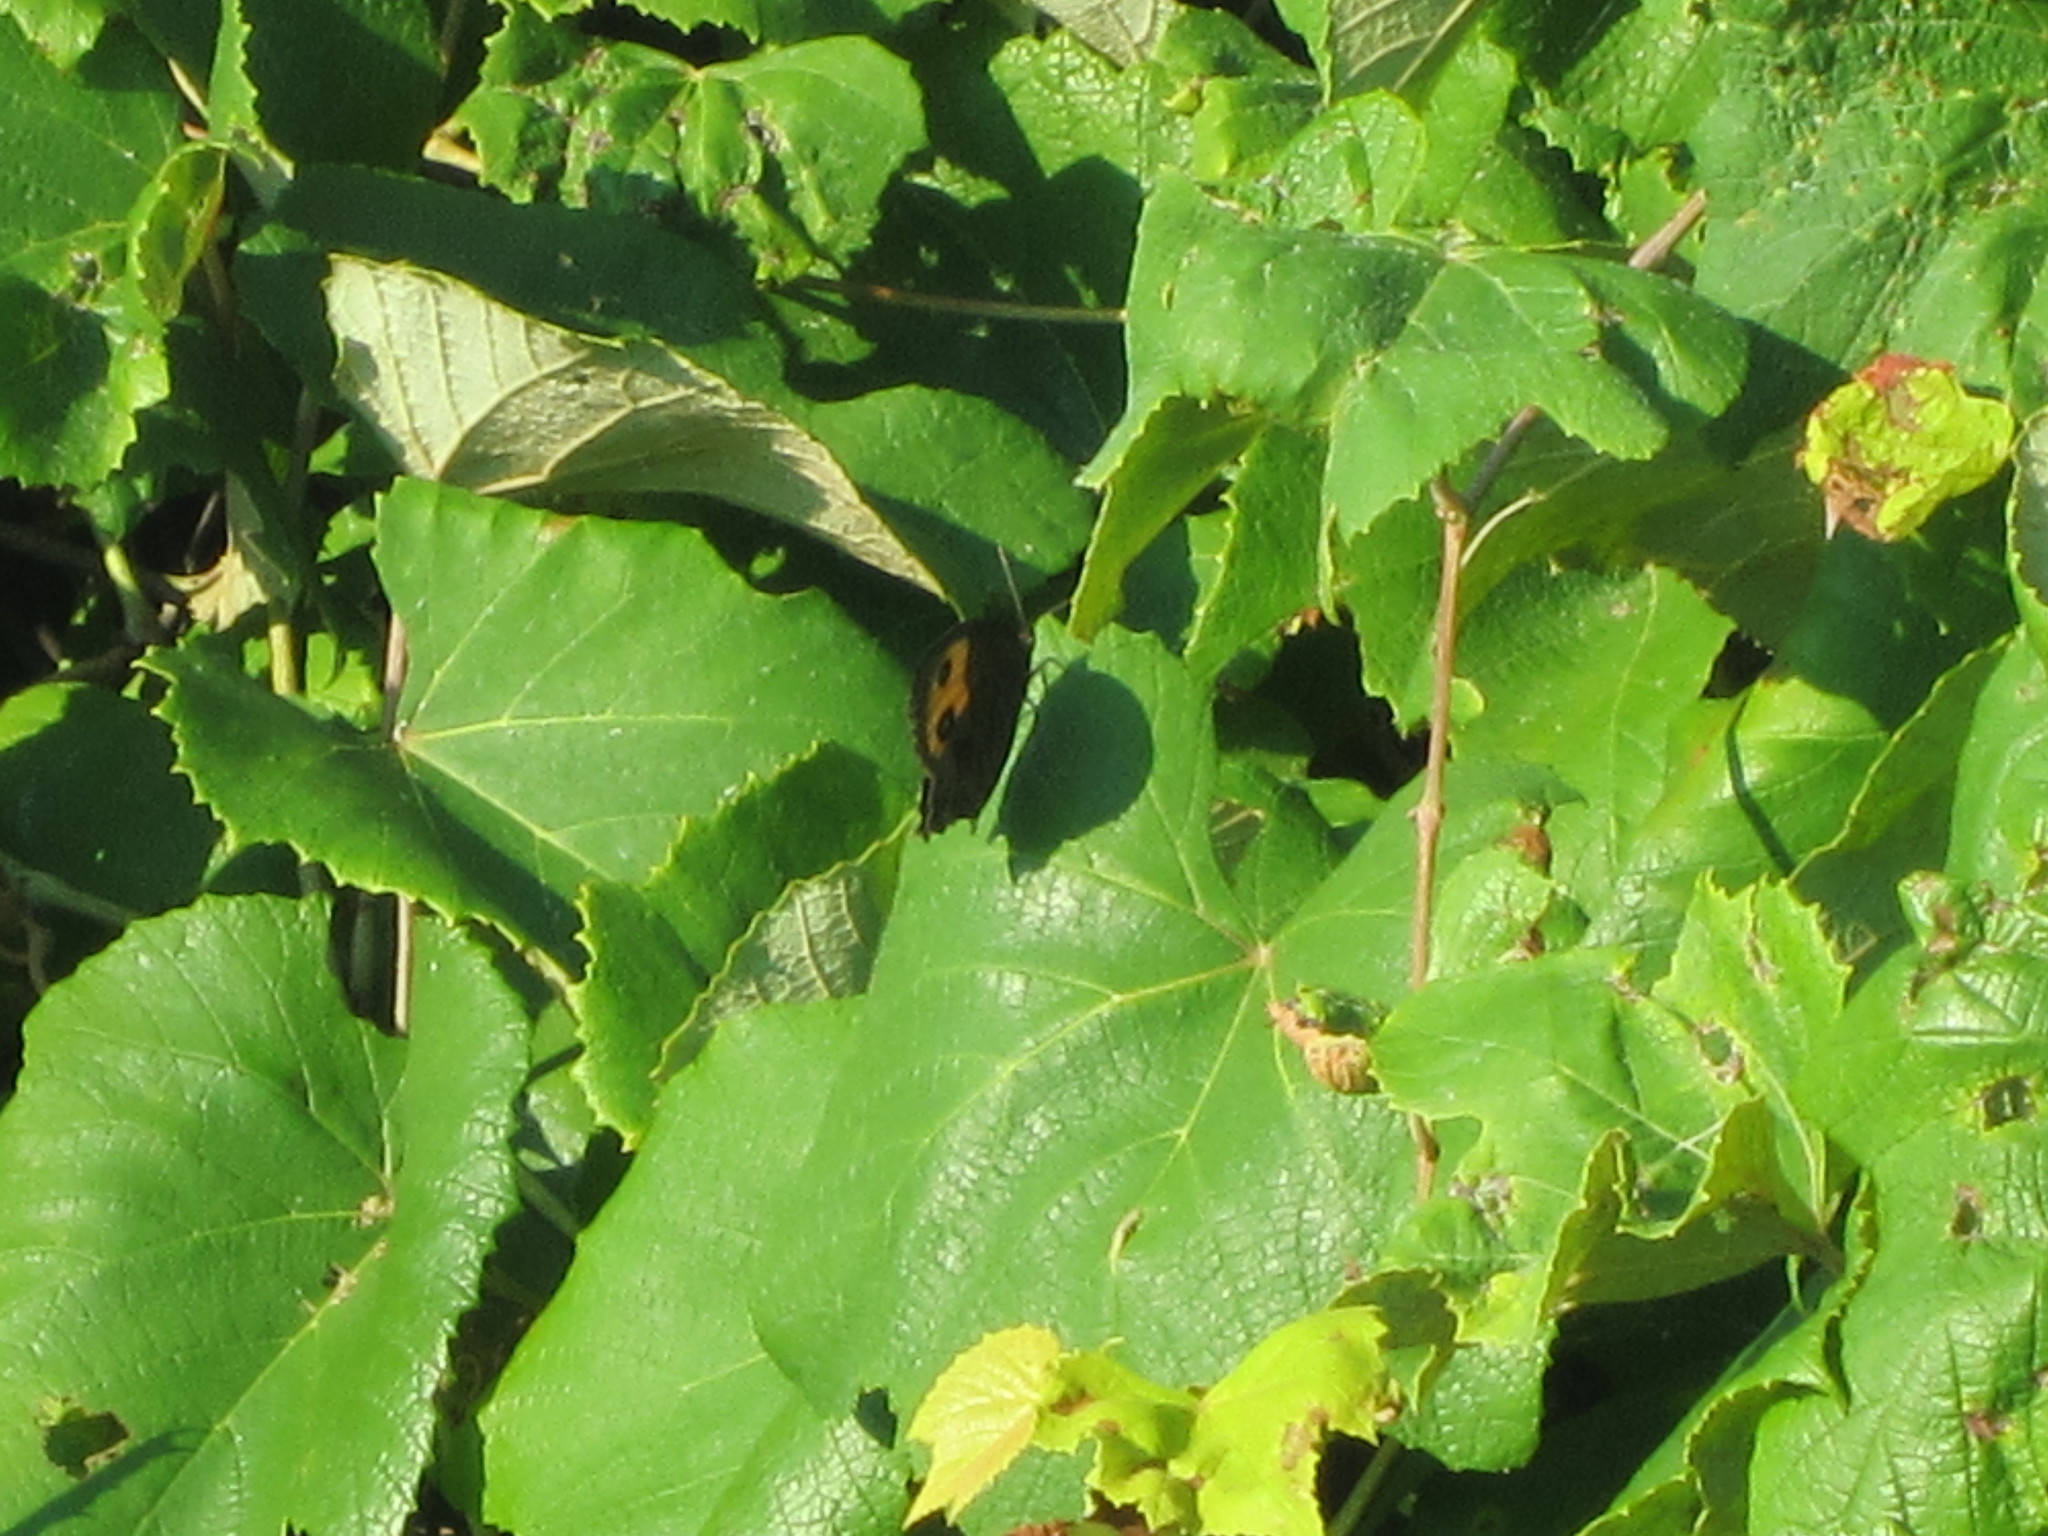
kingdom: Animalia
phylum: Arthropoda
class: Insecta
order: Lepidoptera
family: Nymphalidae
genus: Cercyonis
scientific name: Cercyonis pegala
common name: Common wood-nymph
